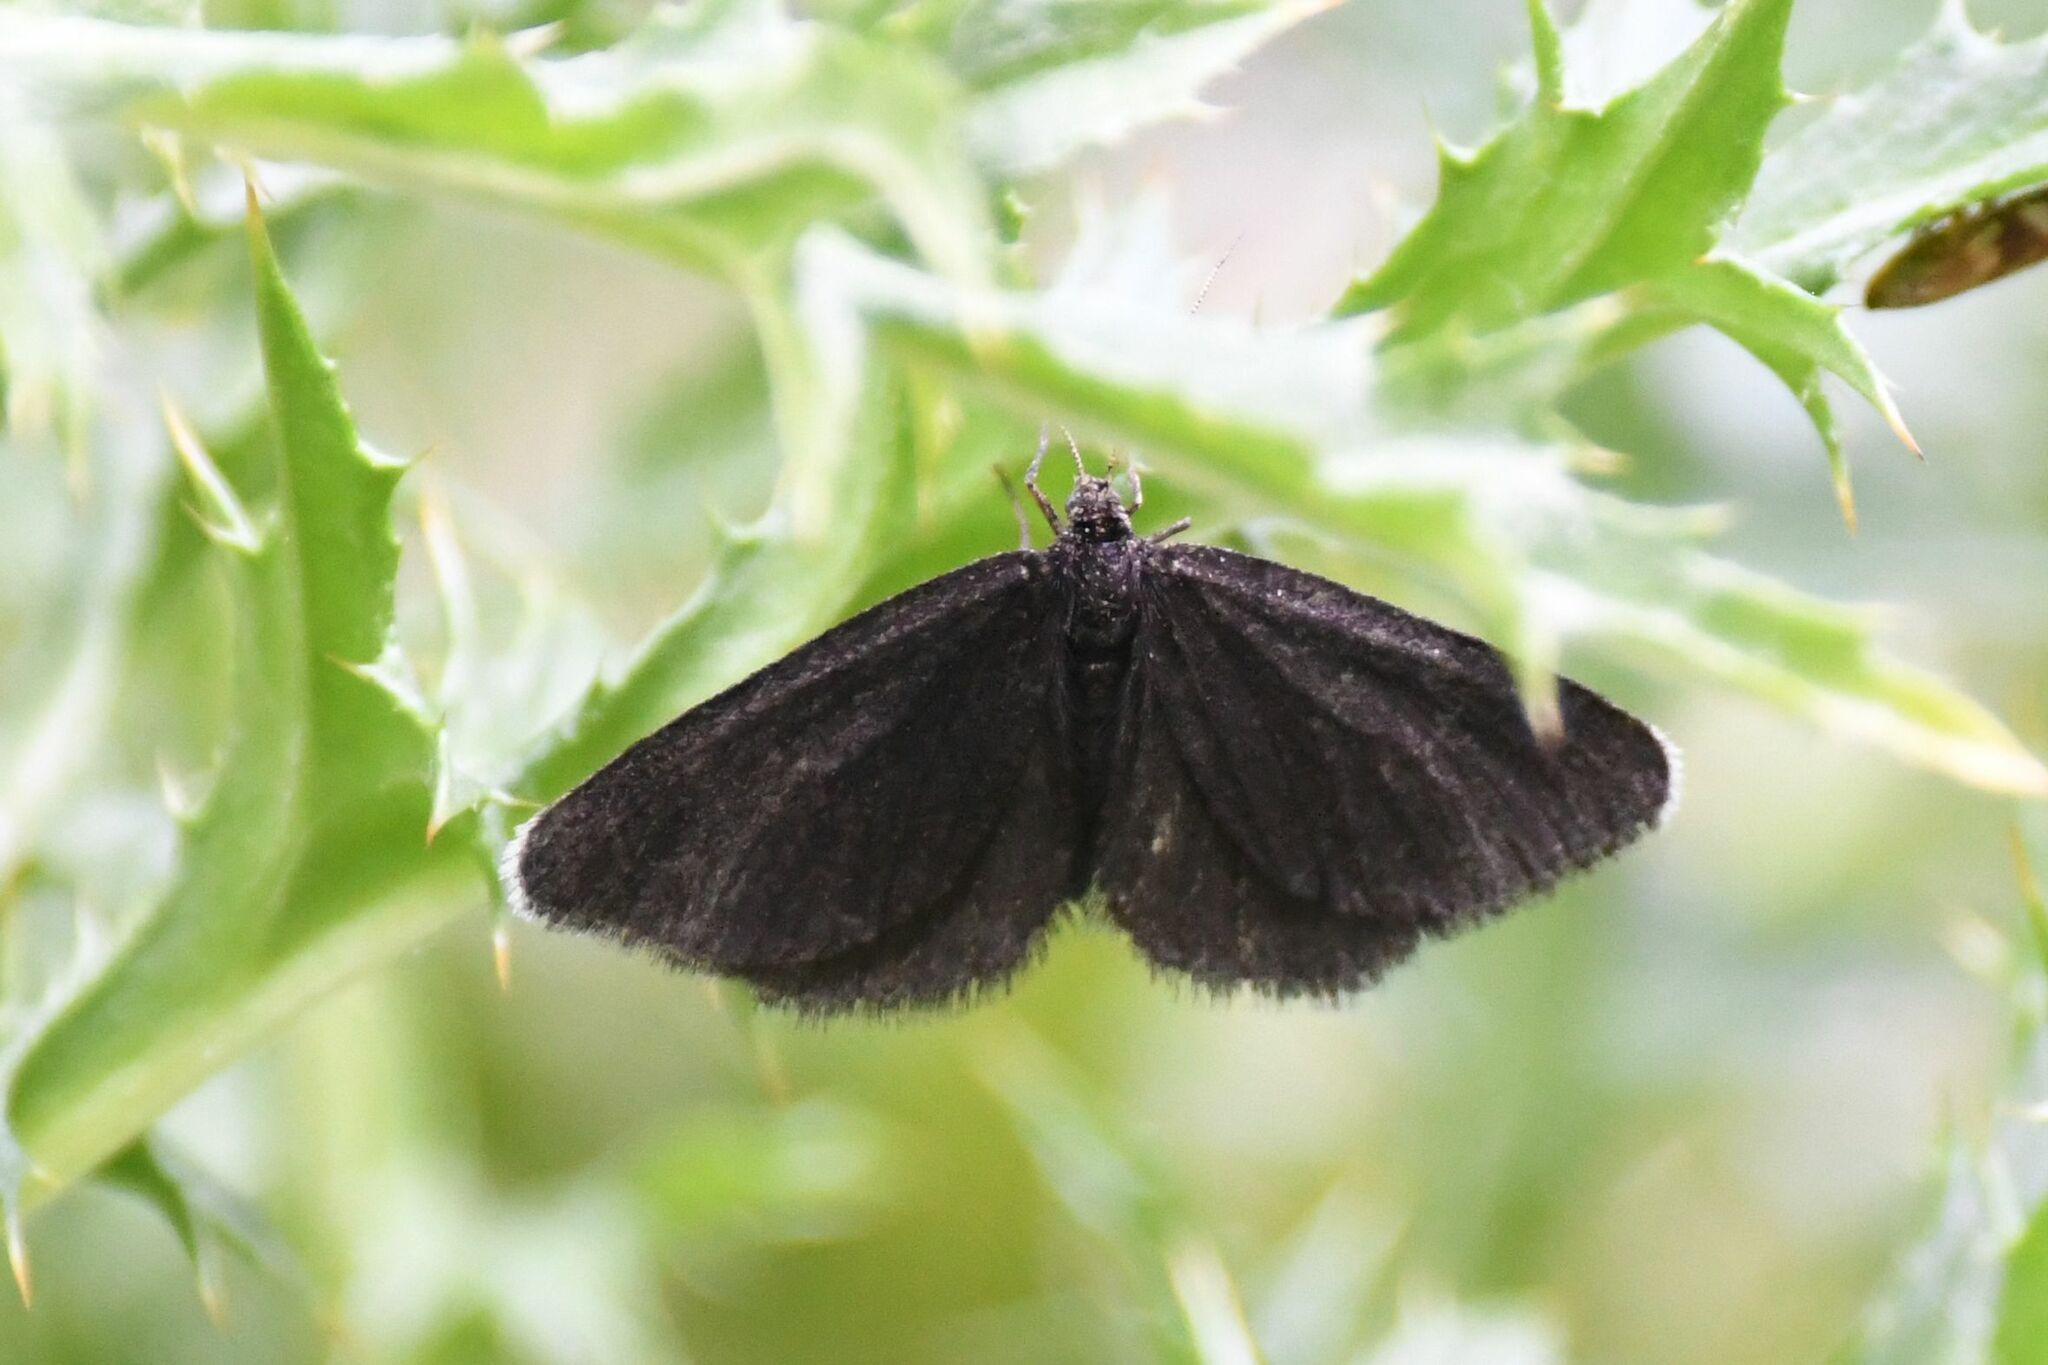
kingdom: Animalia
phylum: Arthropoda
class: Insecta
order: Lepidoptera
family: Geometridae
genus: Odezia
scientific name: Odezia atrata
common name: Chimney sweeper
